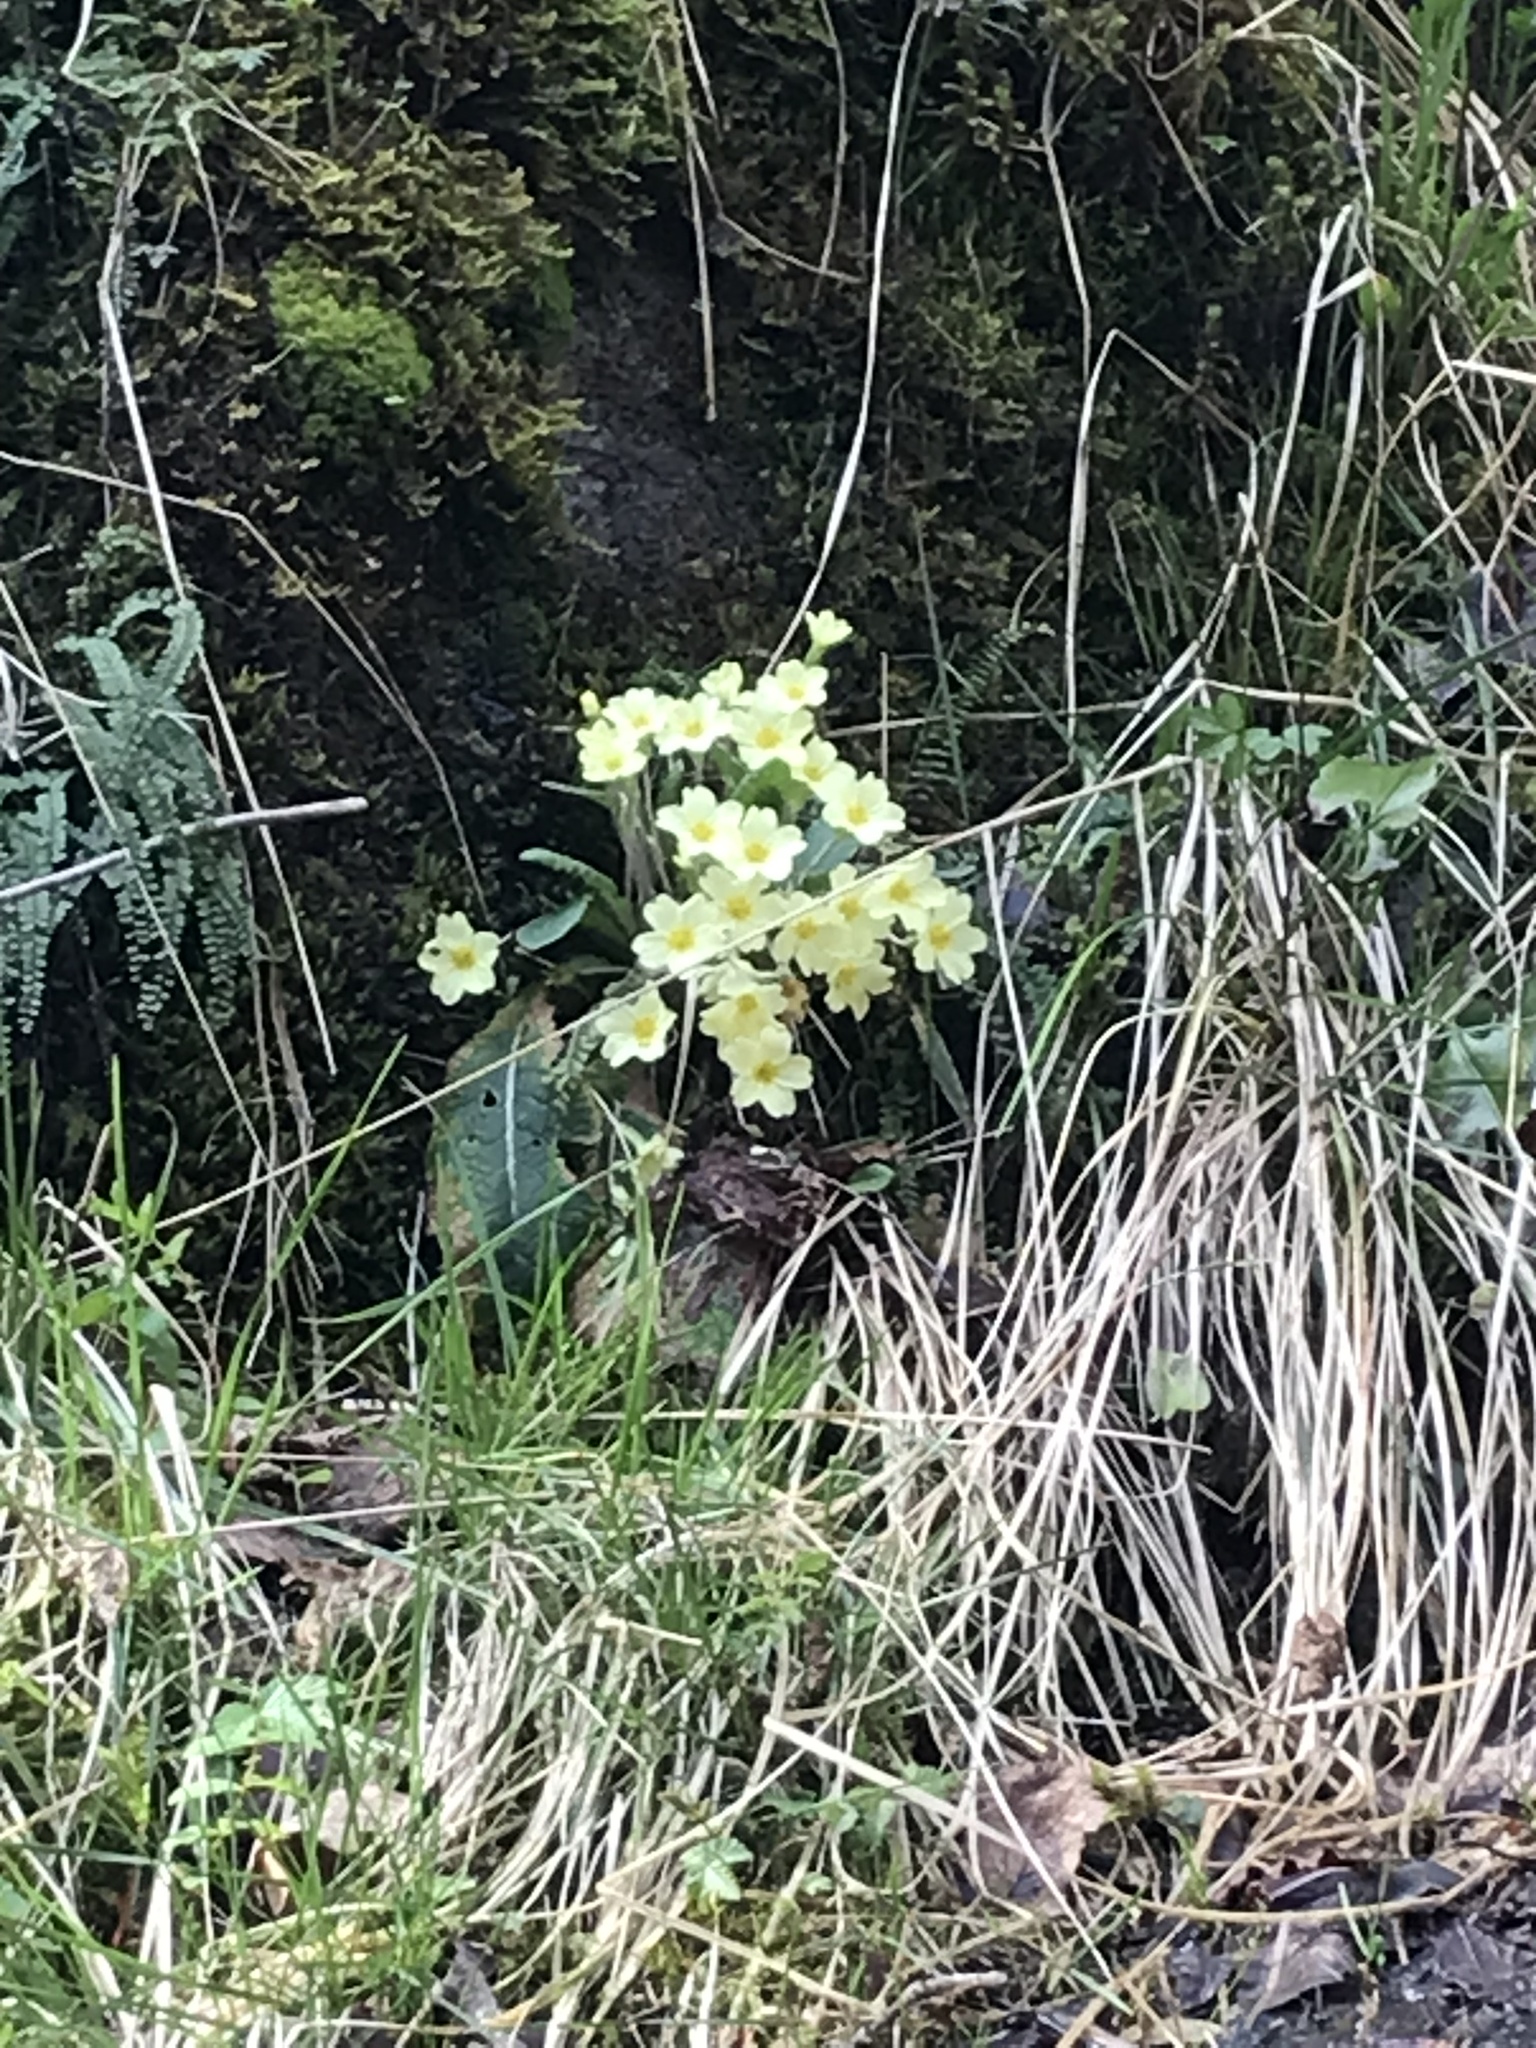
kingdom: Plantae
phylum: Tracheophyta
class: Magnoliopsida
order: Ericales
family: Primulaceae
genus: Primula
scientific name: Primula vulgaris
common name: Primrose
